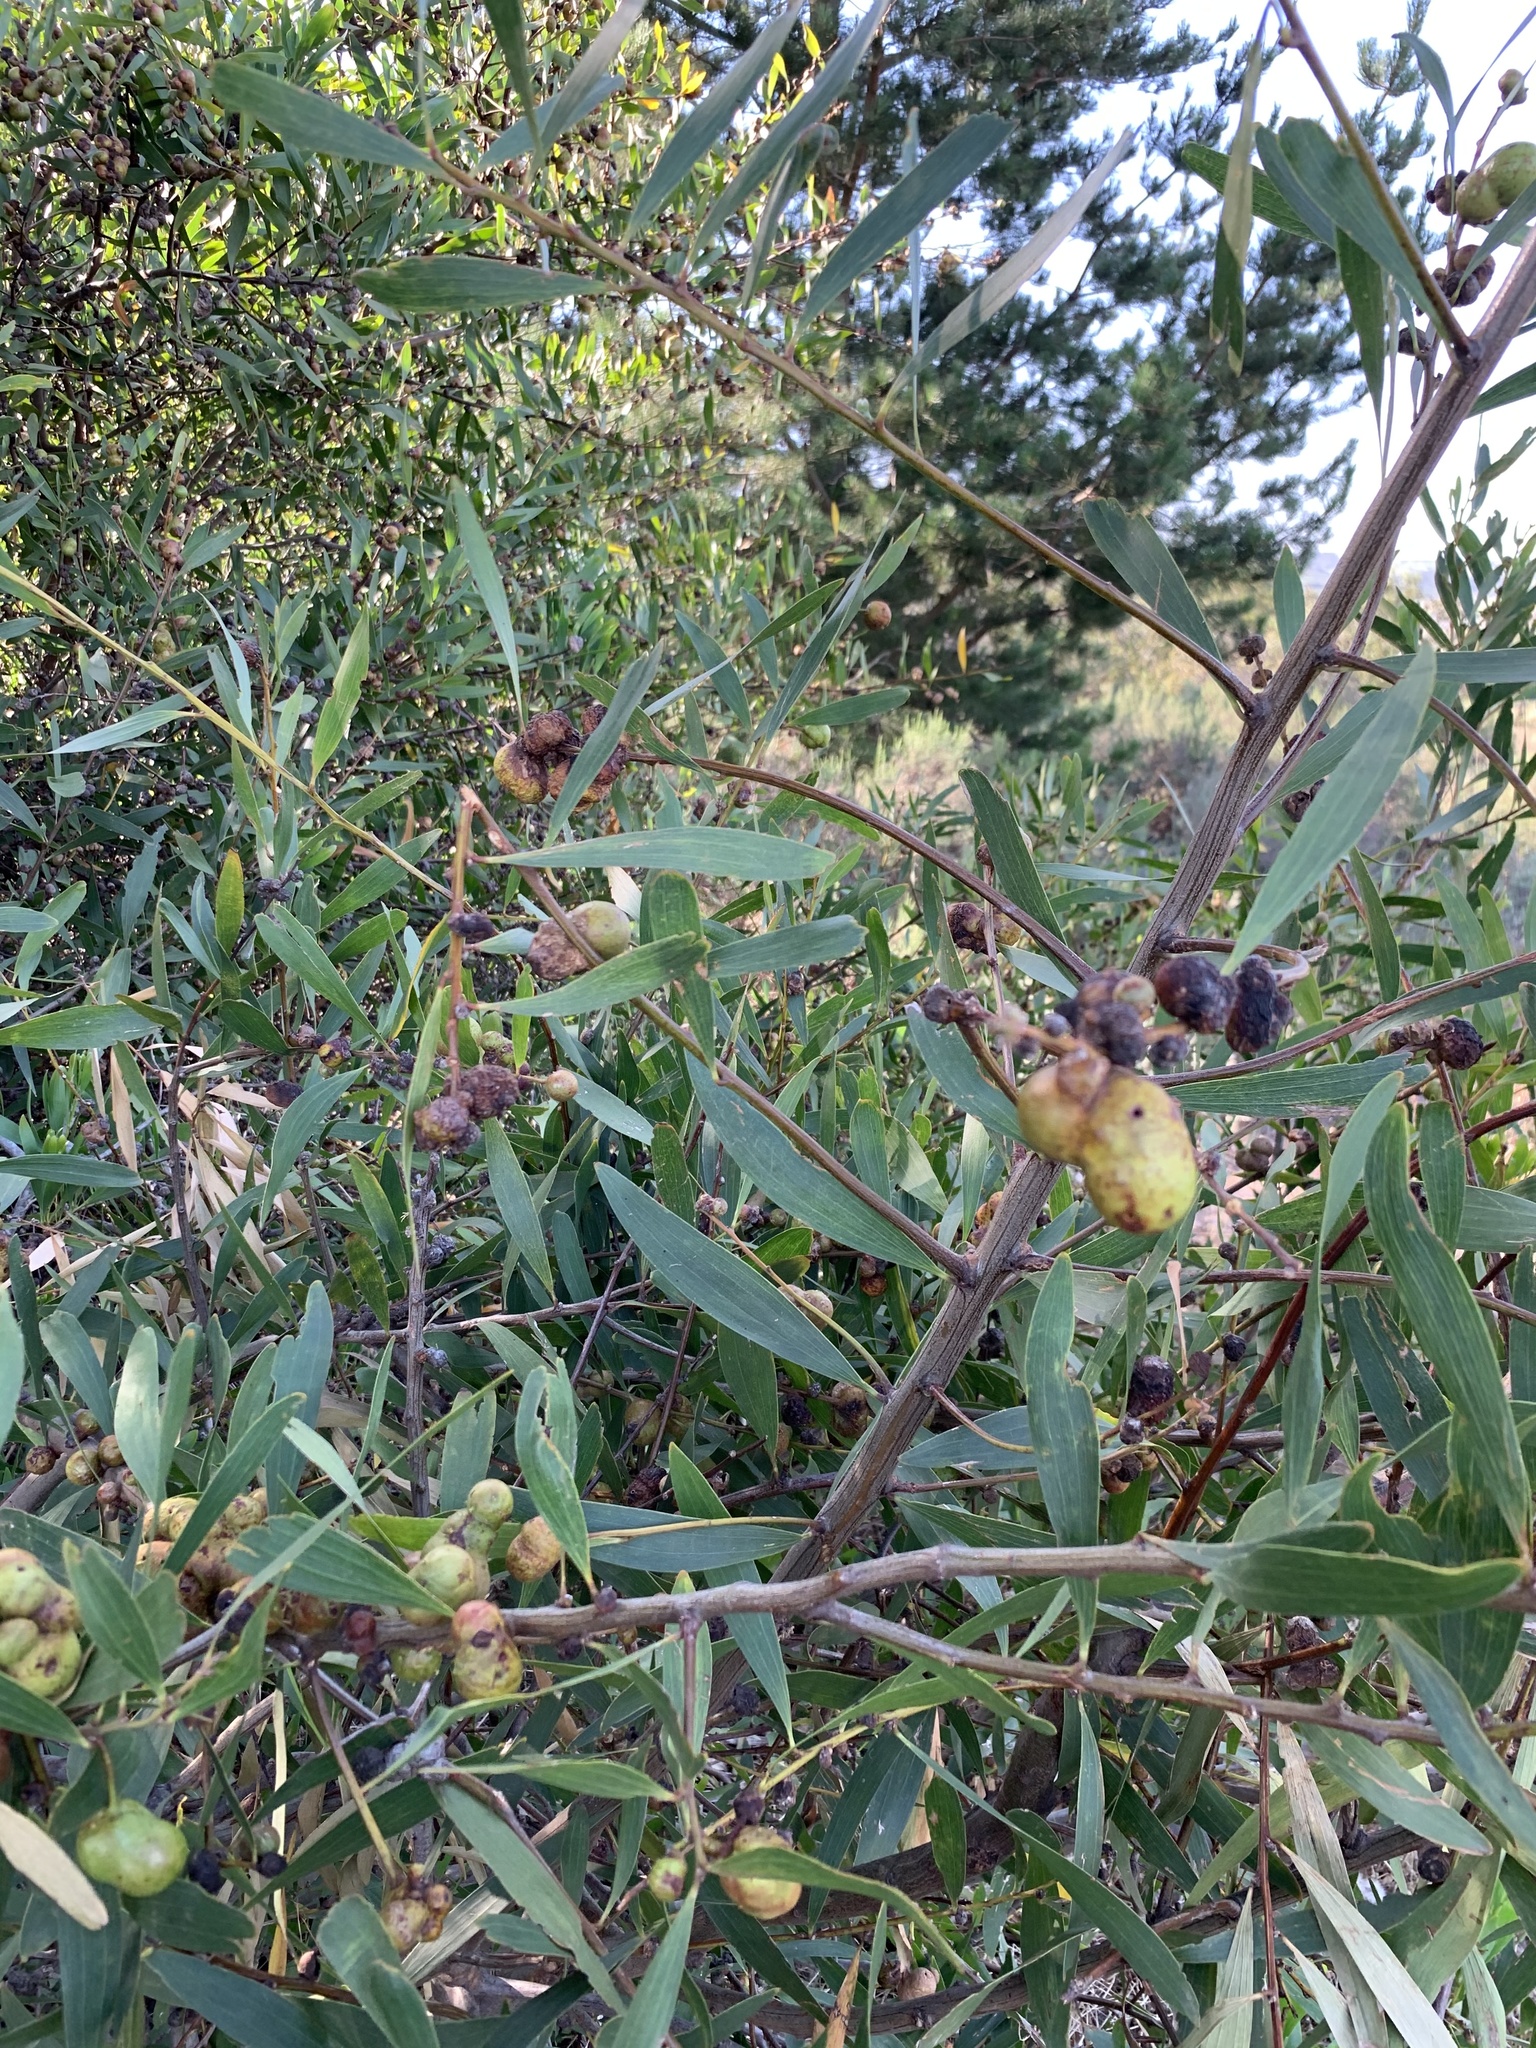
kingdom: Plantae
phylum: Tracheophyta
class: Magnoliopsida
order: Fabales
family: Fabaceae
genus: Acacia
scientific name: Acacia longifolia
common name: Sydney golden wattle
